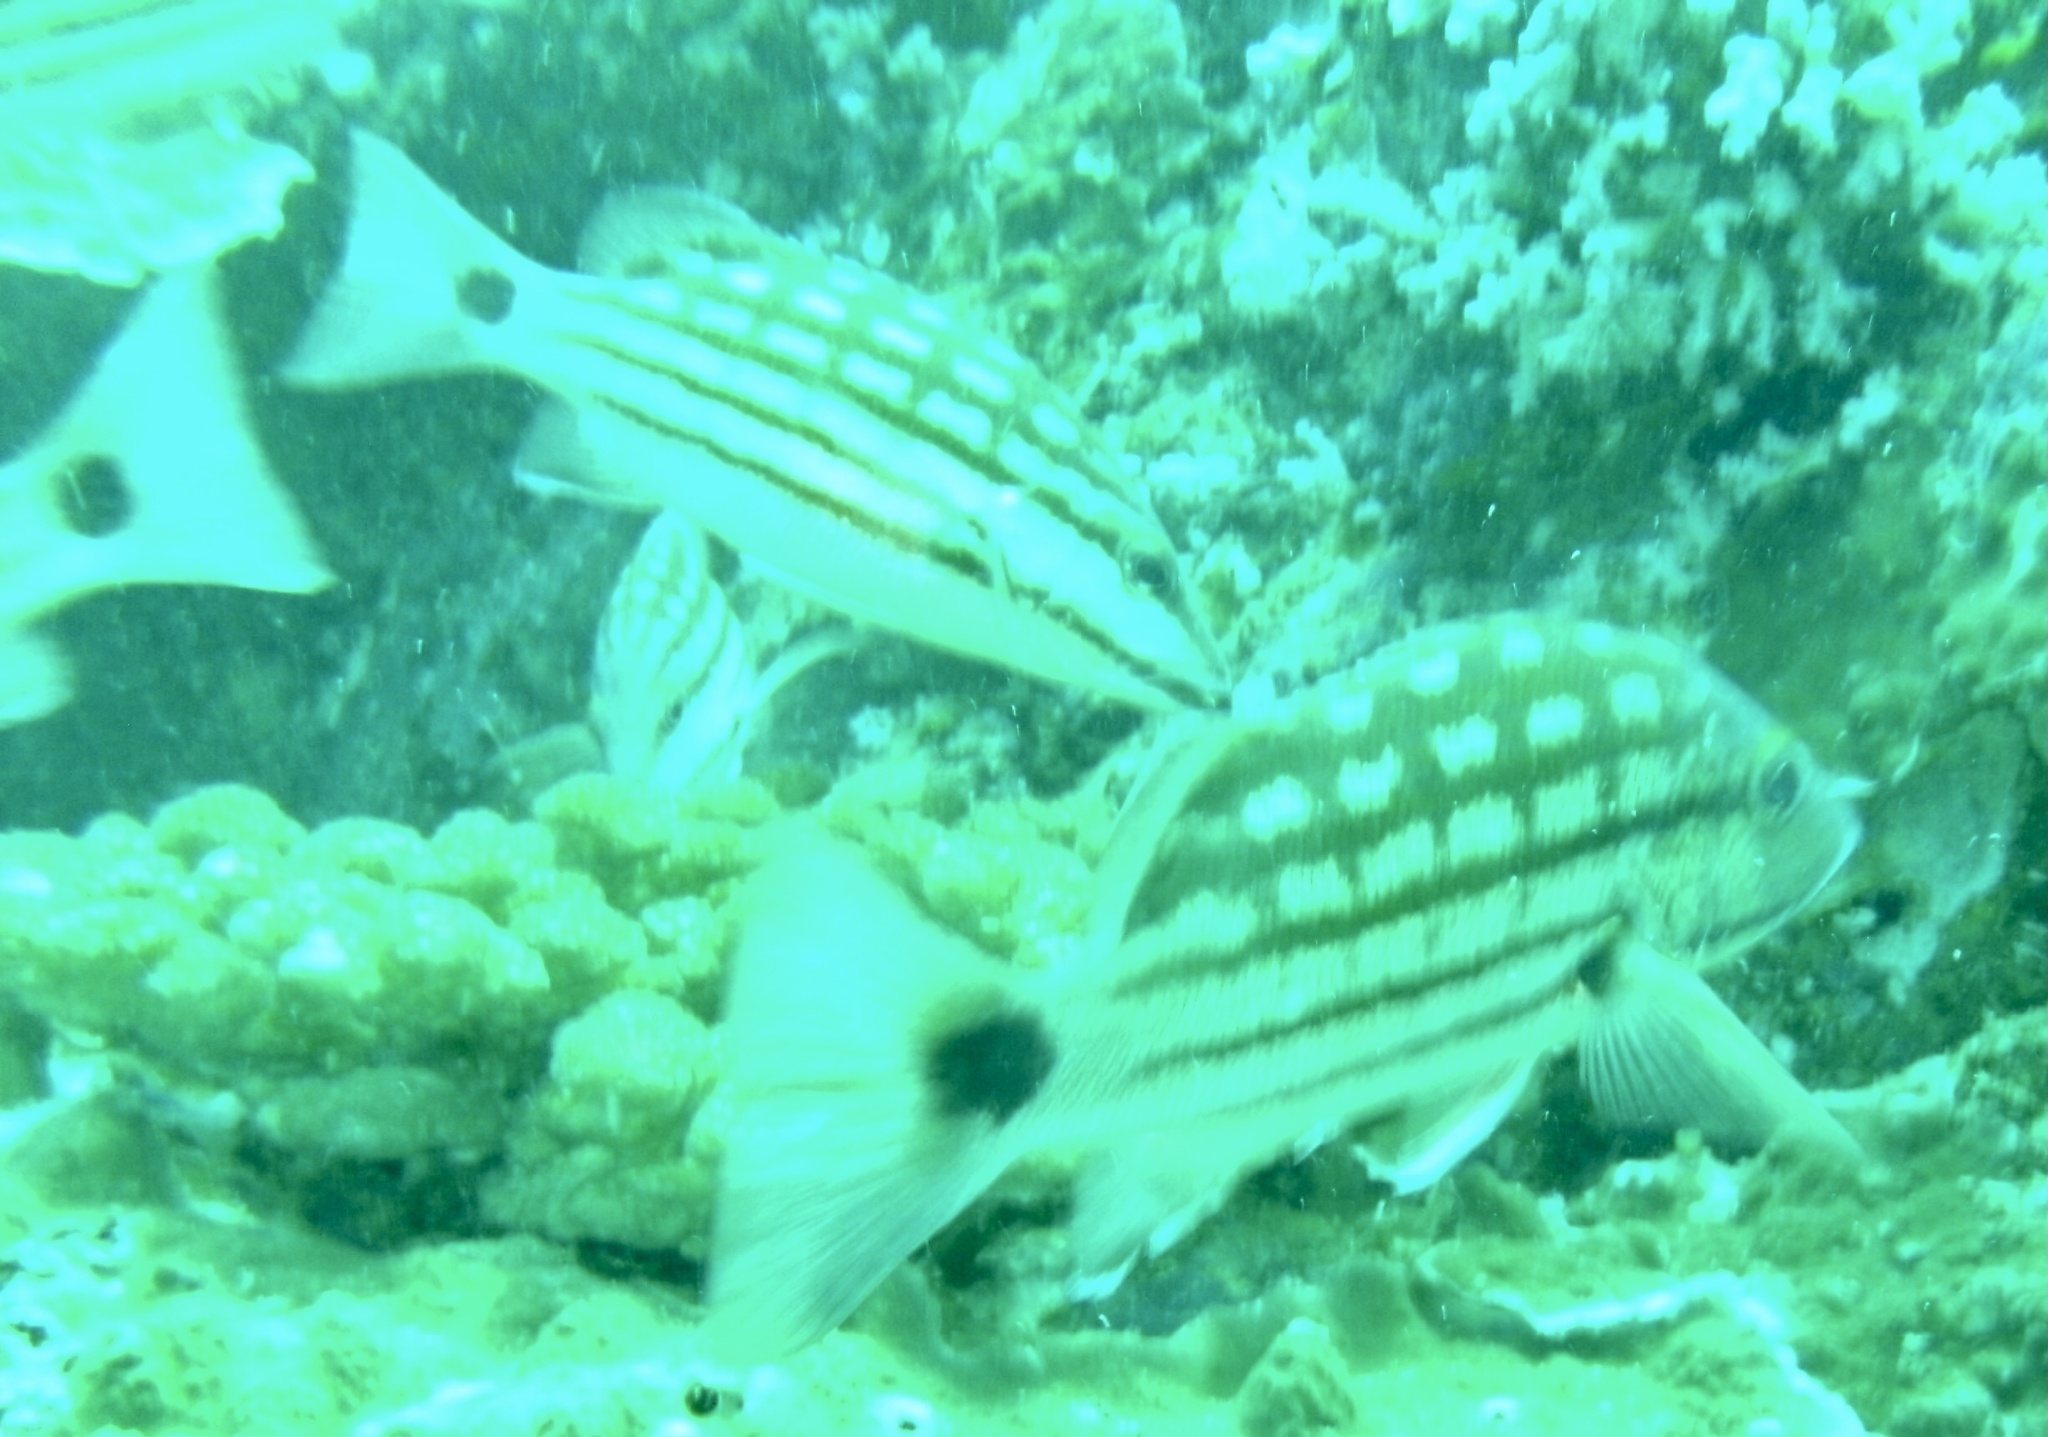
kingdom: Animalia
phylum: Chordata
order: Perciformes
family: Lutjanidae
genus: Lutjanus
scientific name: Lutjanus decussatus
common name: Checkered snapper
